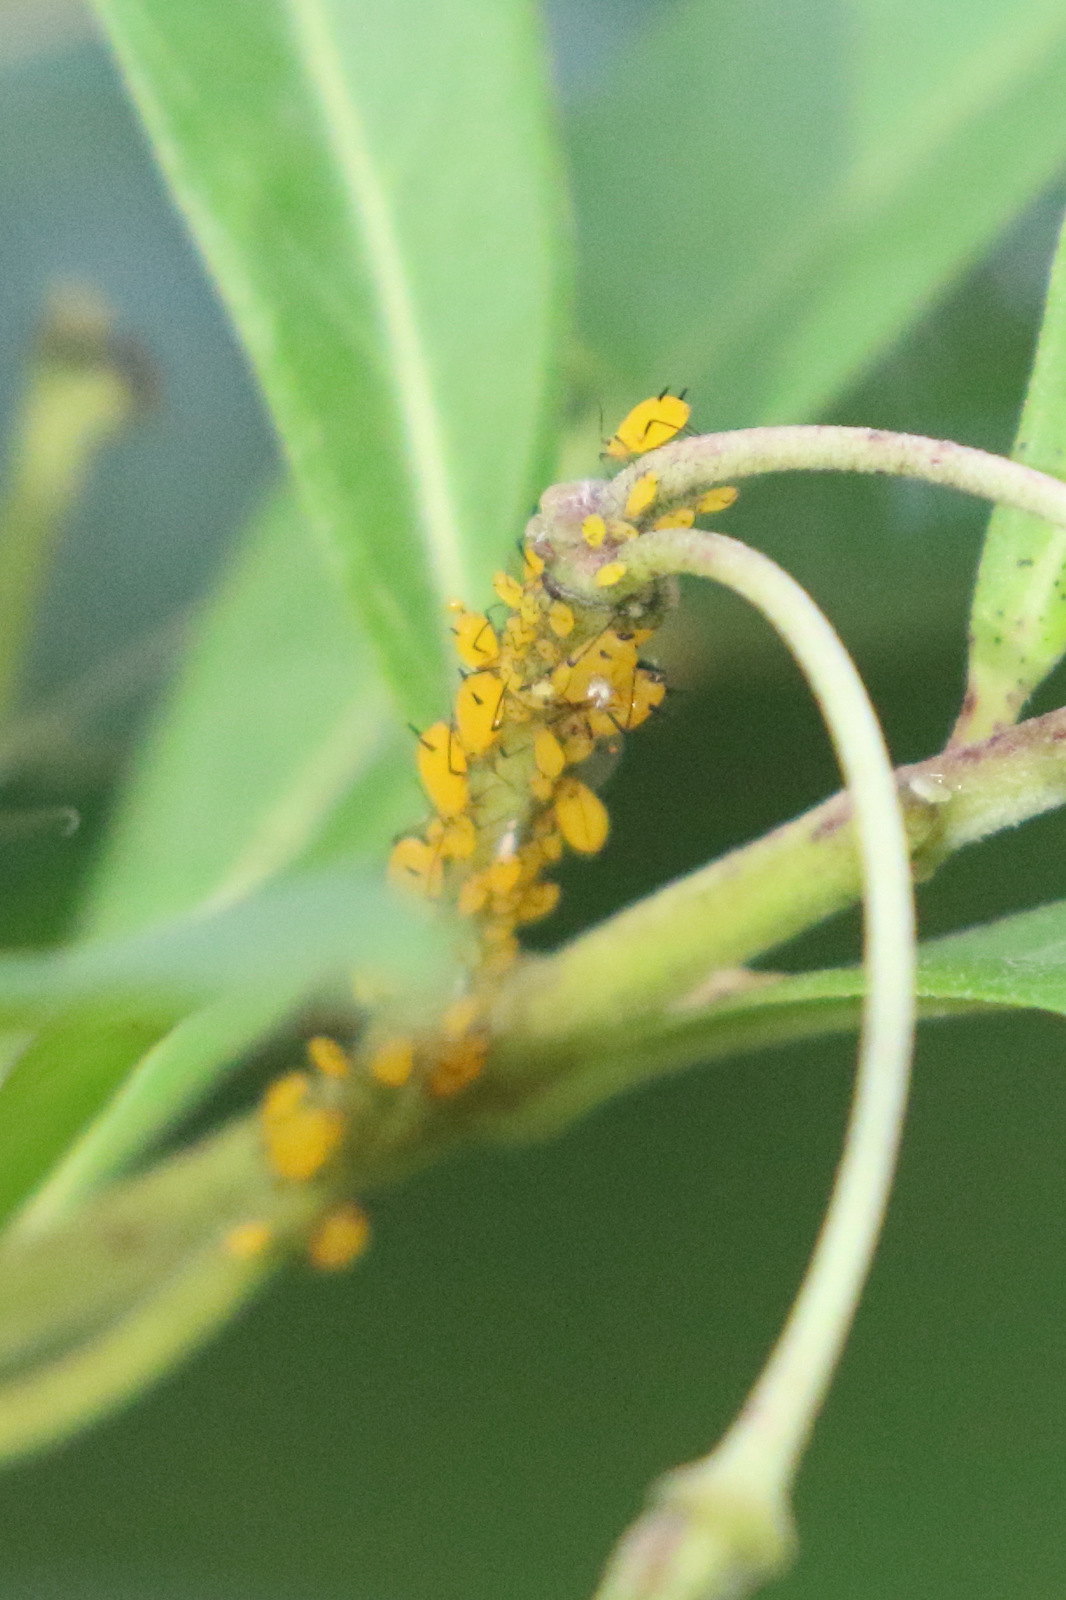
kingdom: Animalia
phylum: Arthropoda
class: Insecta
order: Hemiptera
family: Aphididae
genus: Aphis
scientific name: Aphis nerii
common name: Oleander aphid
